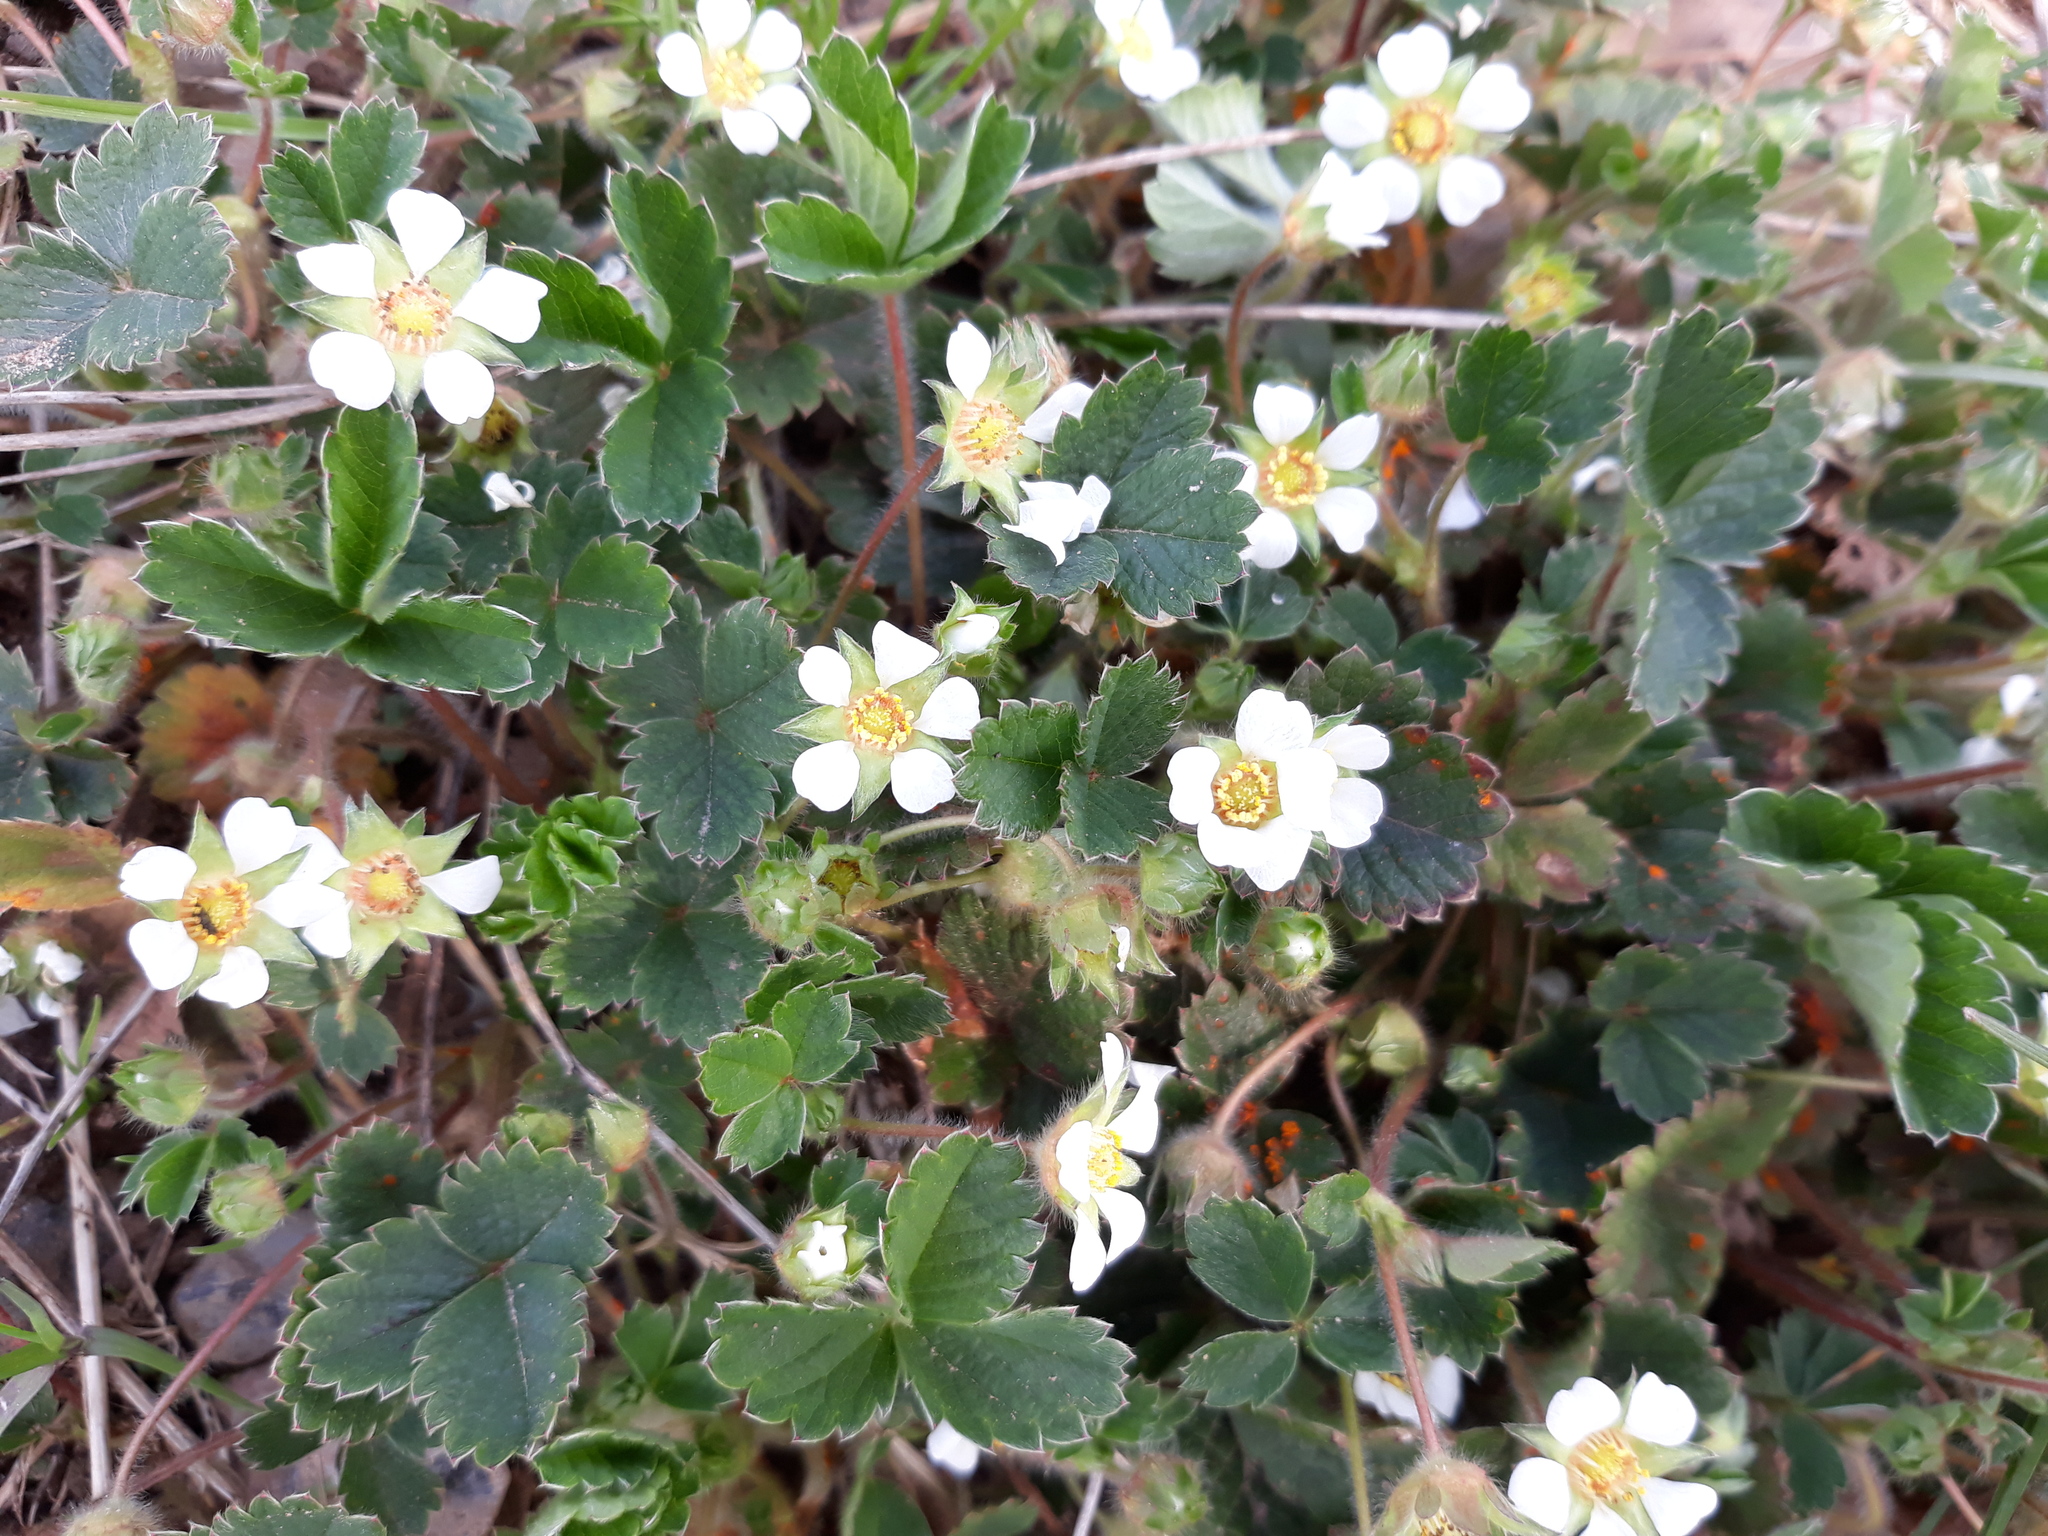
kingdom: Plantae
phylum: Tracheophyta
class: Magnoliopsida
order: Rosales
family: Rosaceae
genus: Potentilla
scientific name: Potentilla sterilis
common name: Barren strawberry
